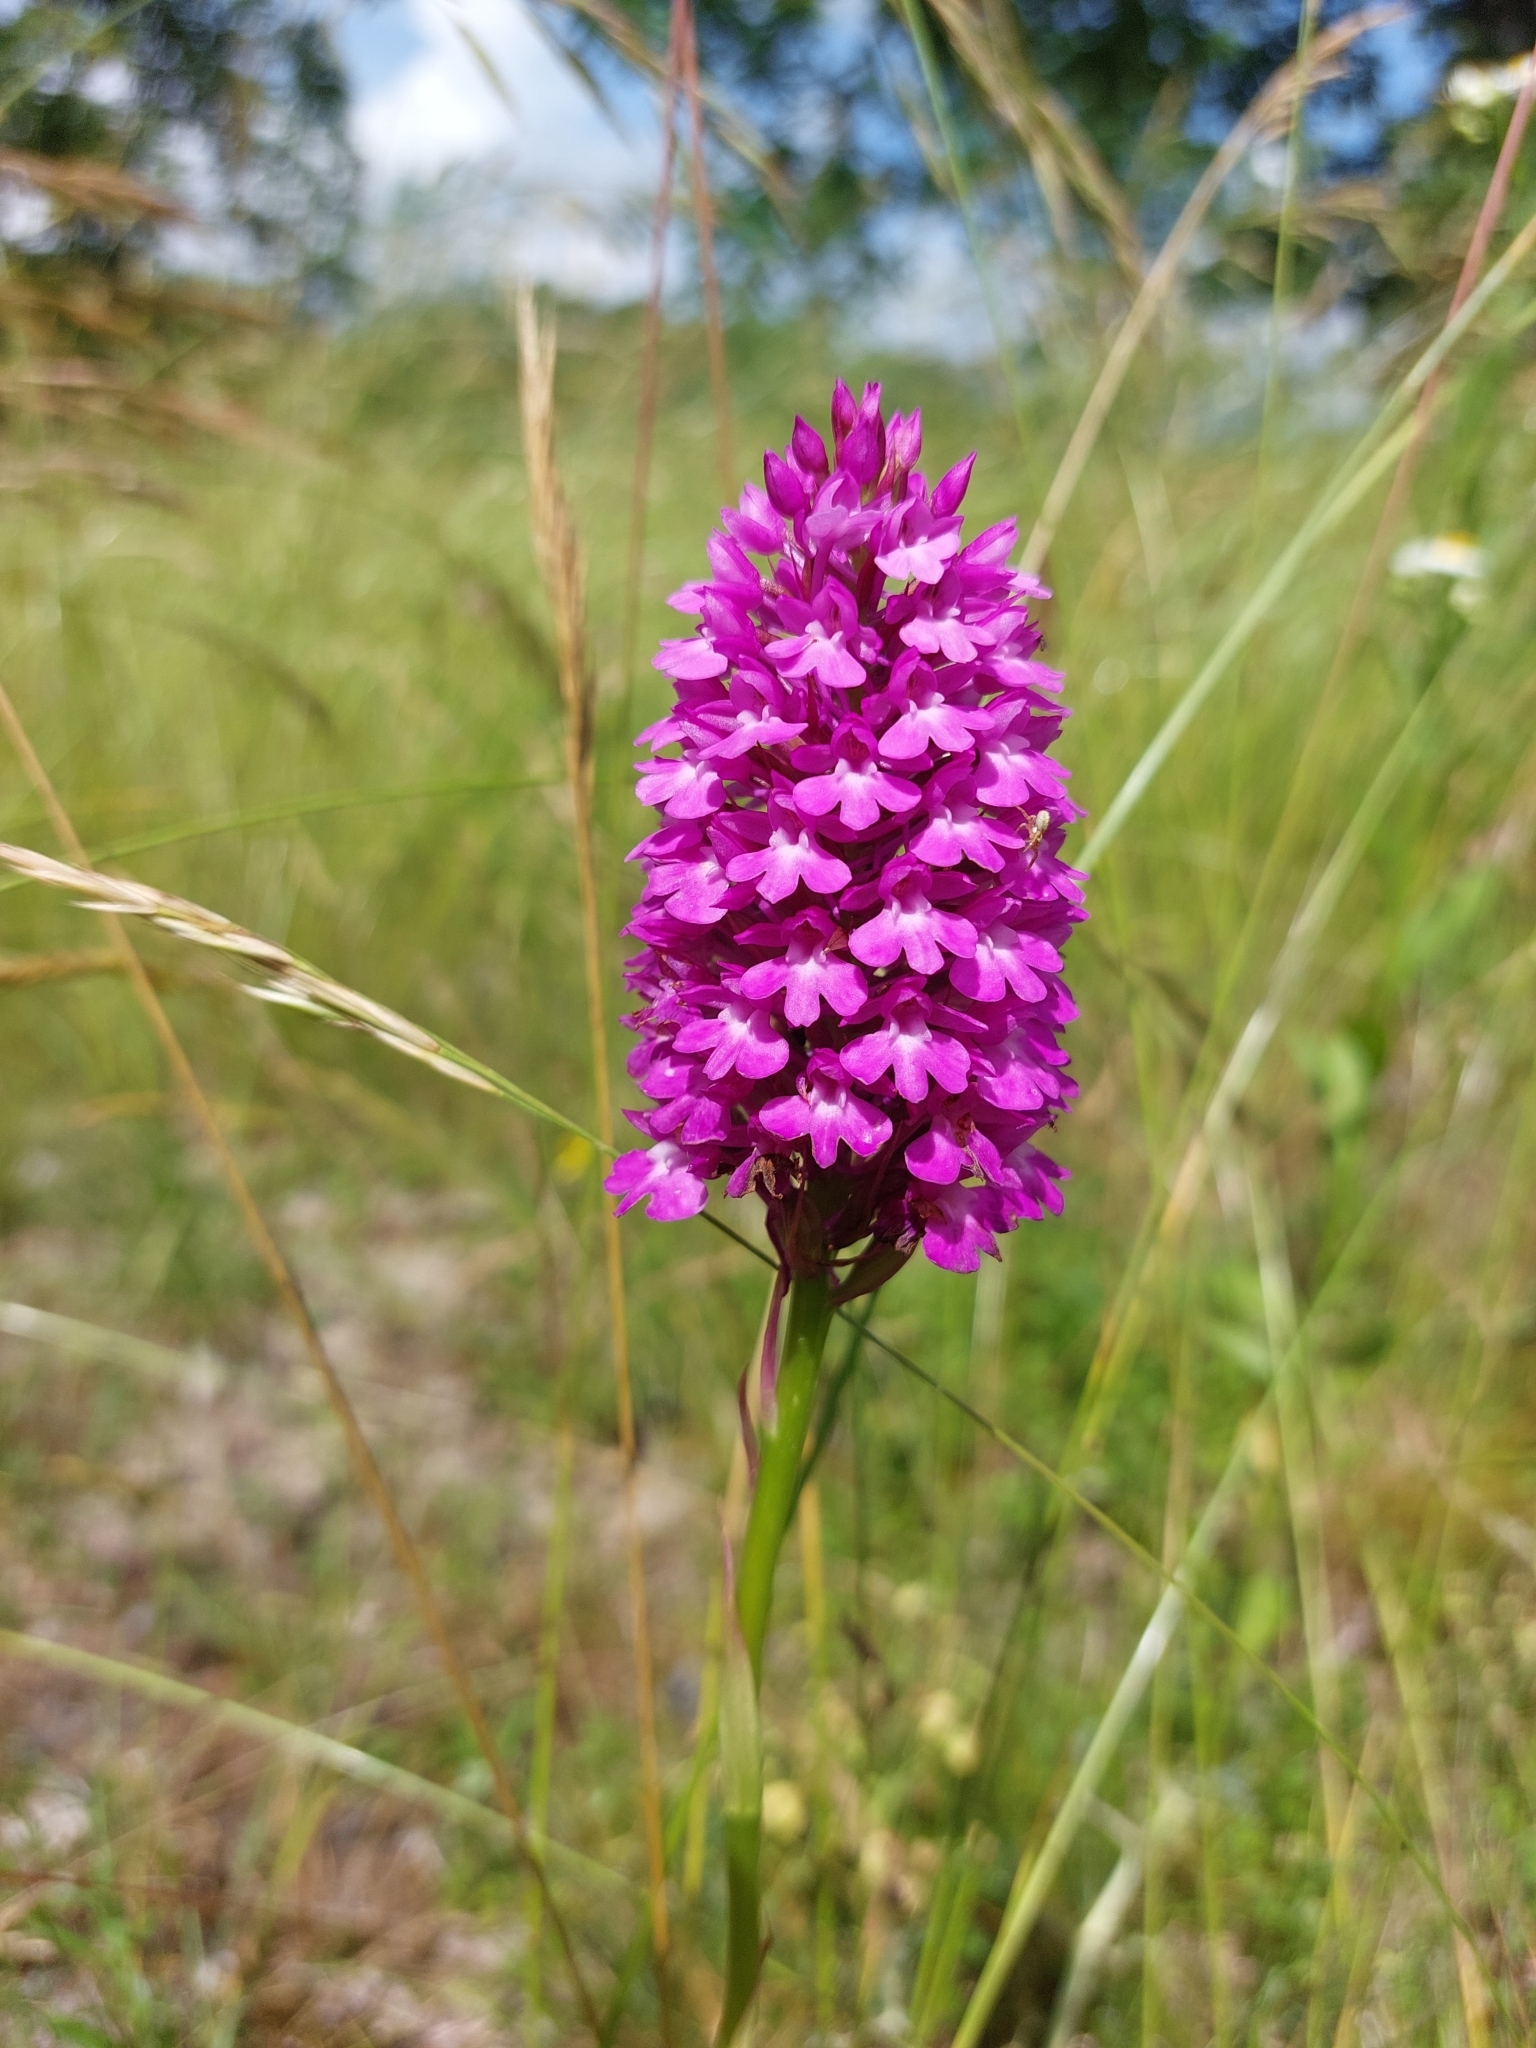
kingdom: Plantae
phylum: Tracheophyta
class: Liliopsida
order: Asparagales
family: Orchidaceae
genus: Anacamptis
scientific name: Anacamptis pyramidalis
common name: Pyramidal orchid
